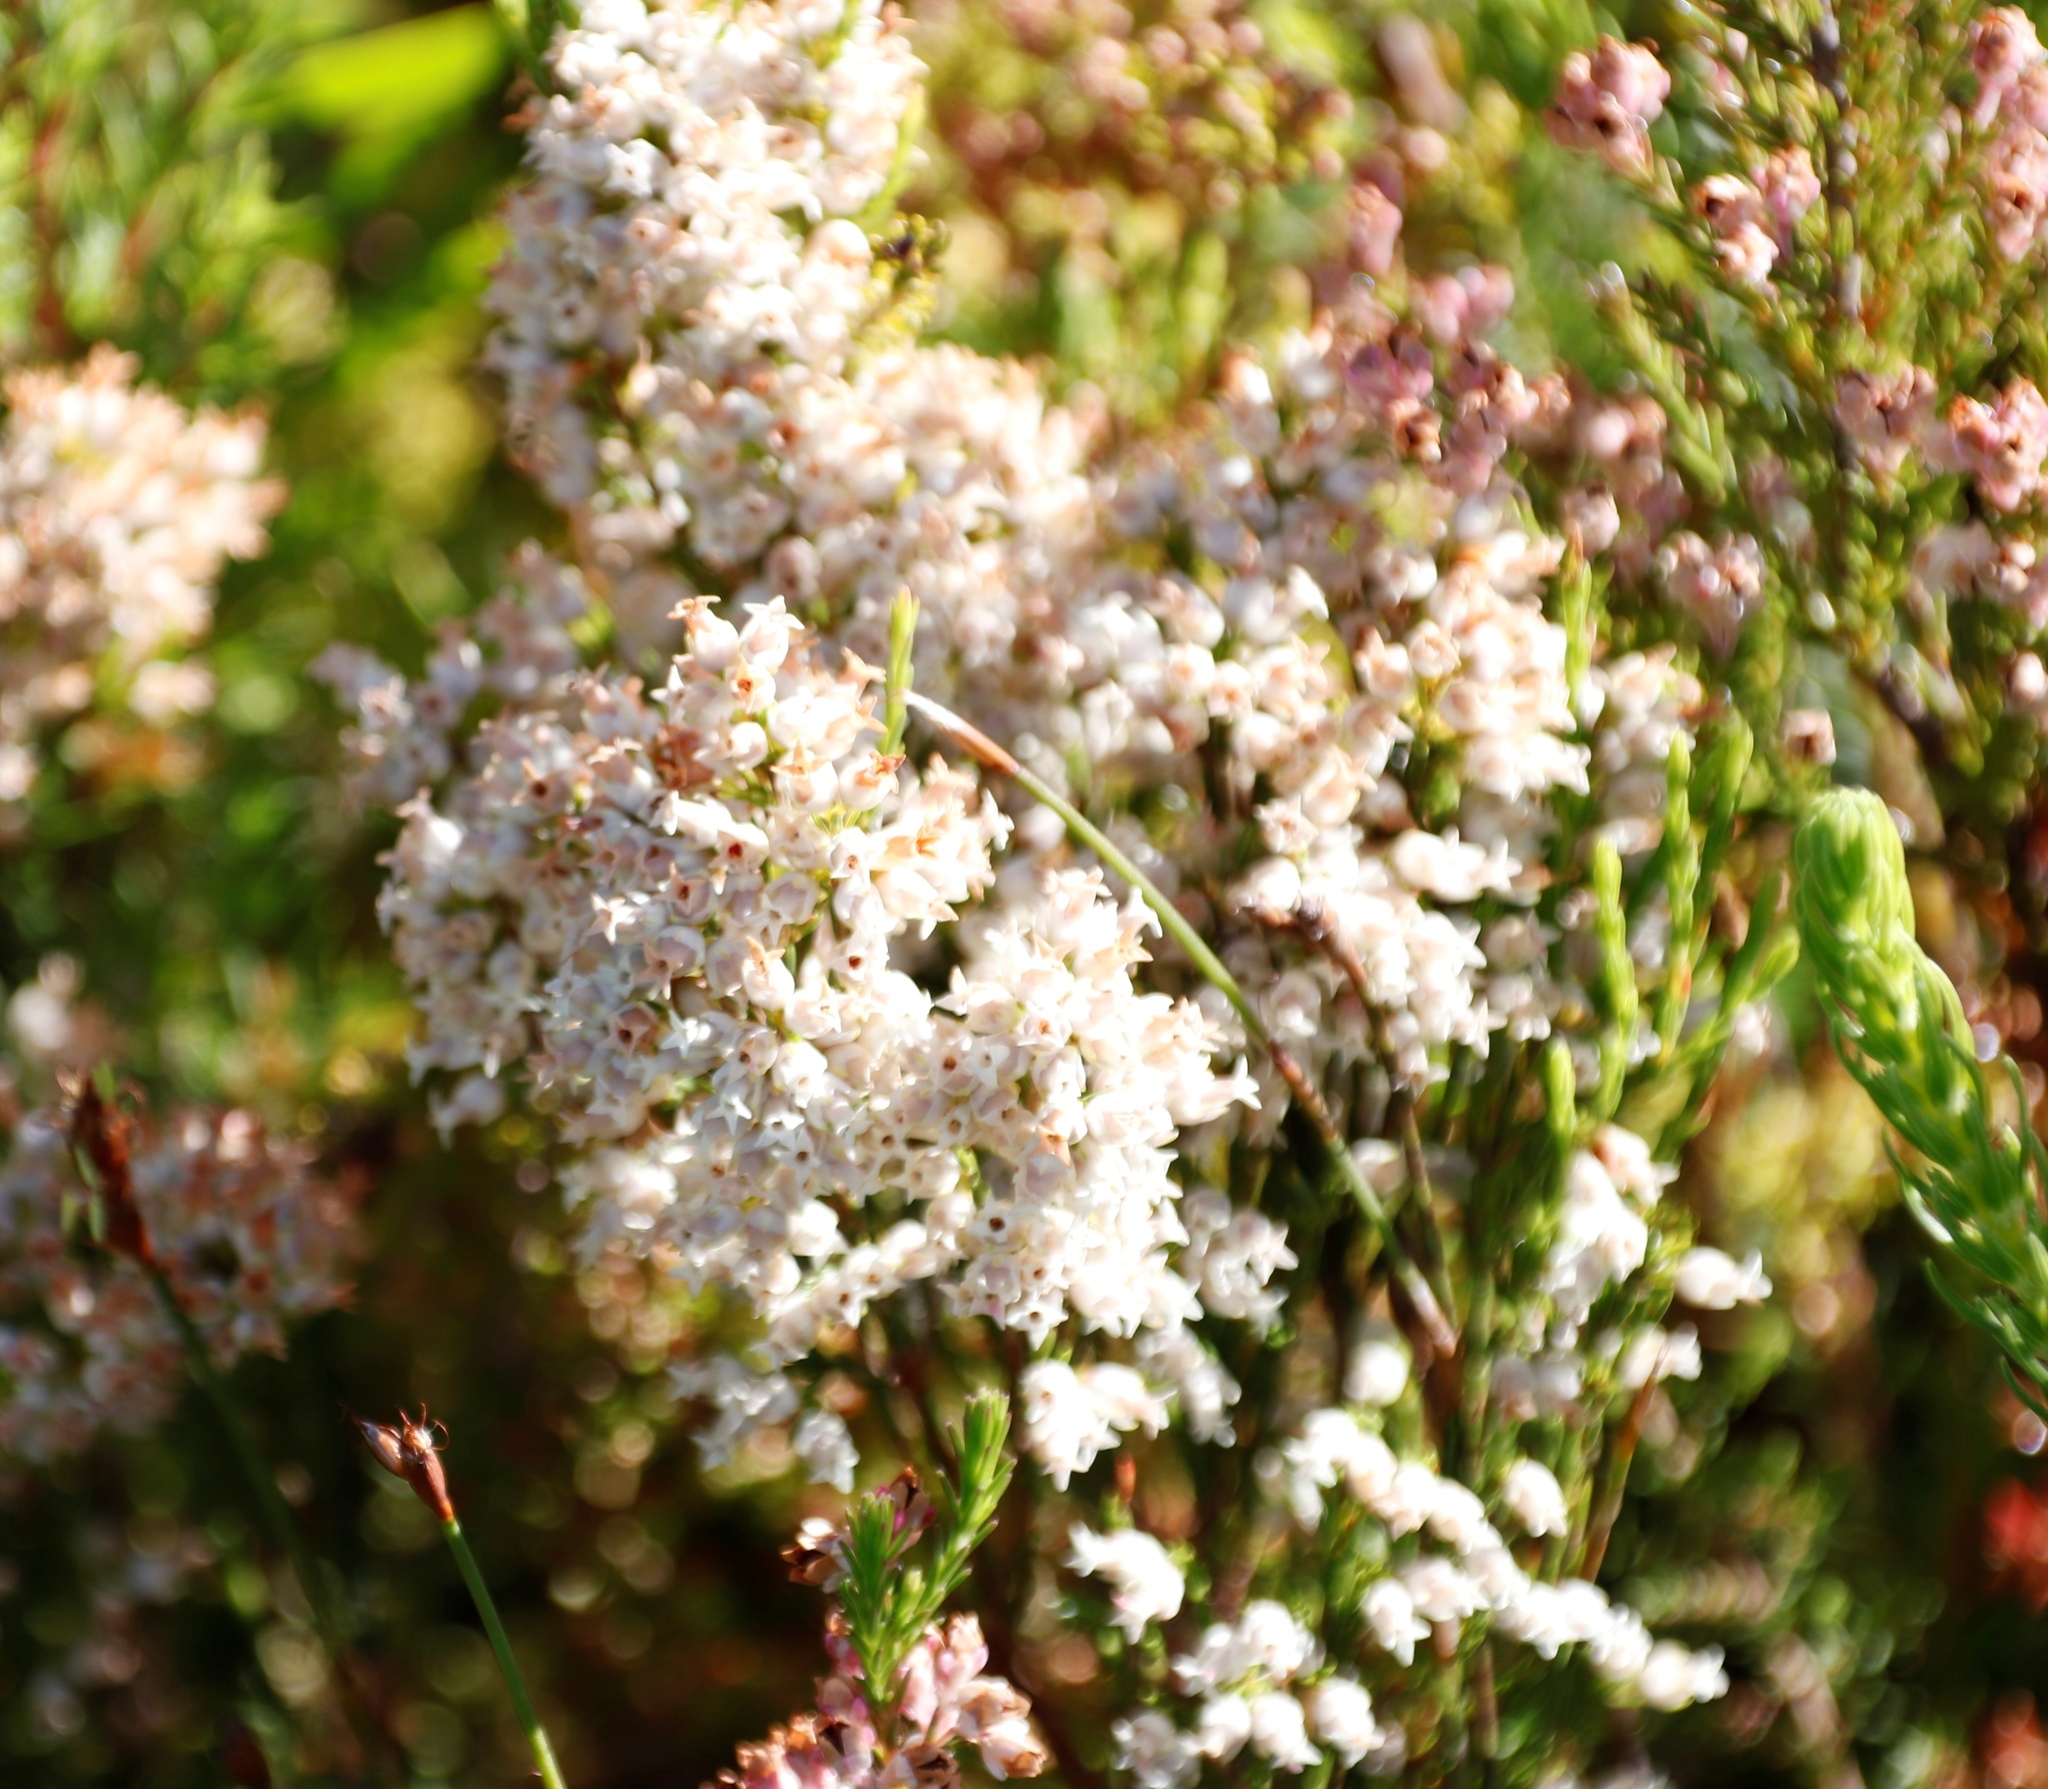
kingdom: Plantae
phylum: Tracheophyta
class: Magnoliopsida
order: Ericales
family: Ericaceae
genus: Erica
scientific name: Erica lutea
